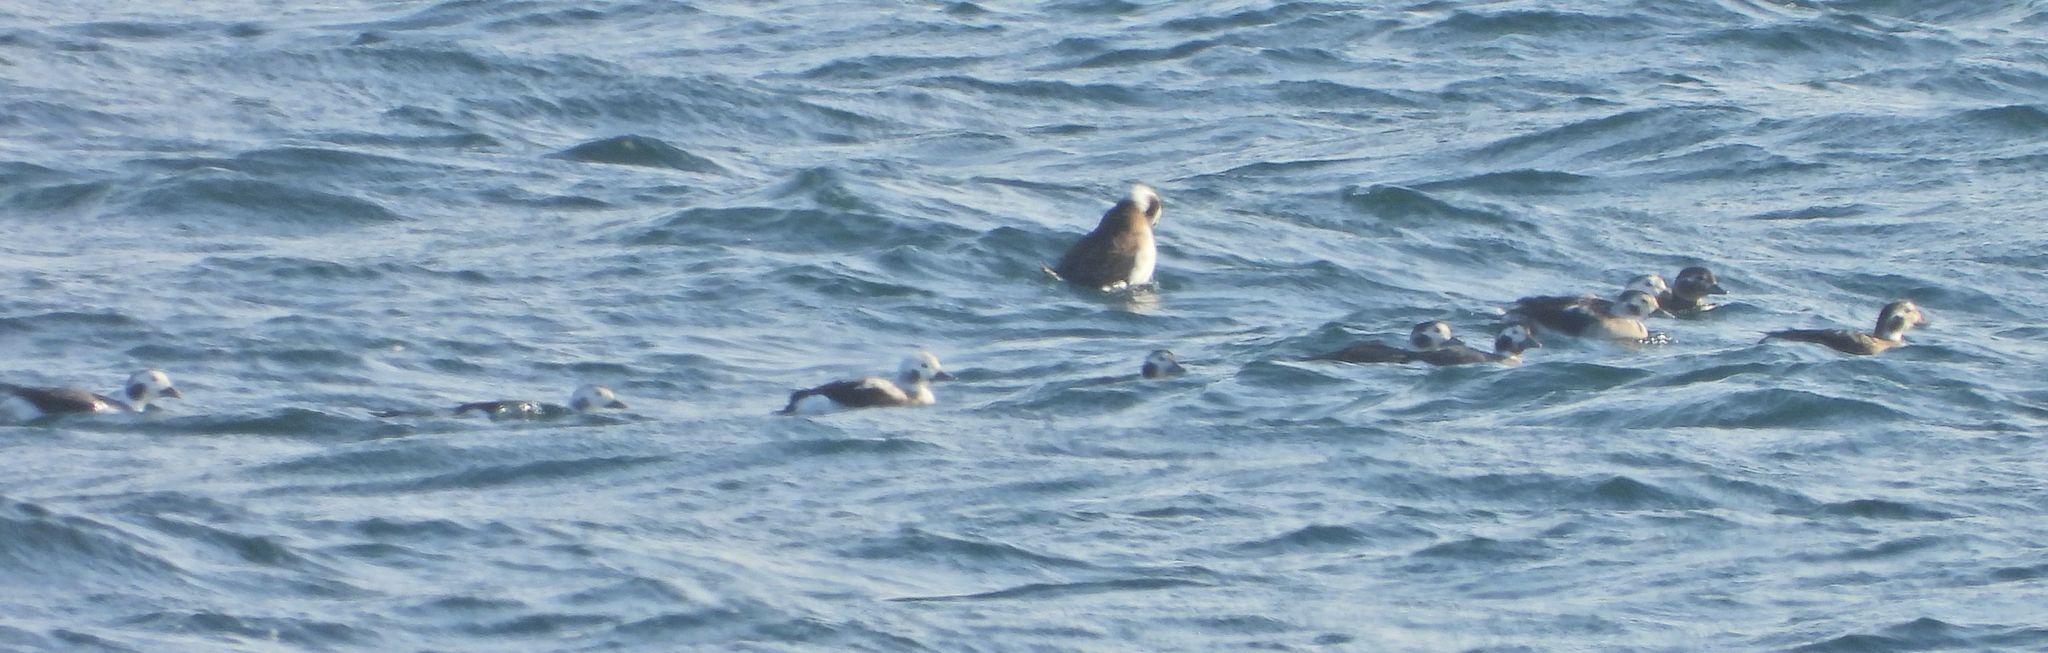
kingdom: Animalia
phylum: Chordata
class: Aves
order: Anseriformes
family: Anatidae
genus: Clangula
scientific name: Clangula hyemalis
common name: Long-tailed duck
